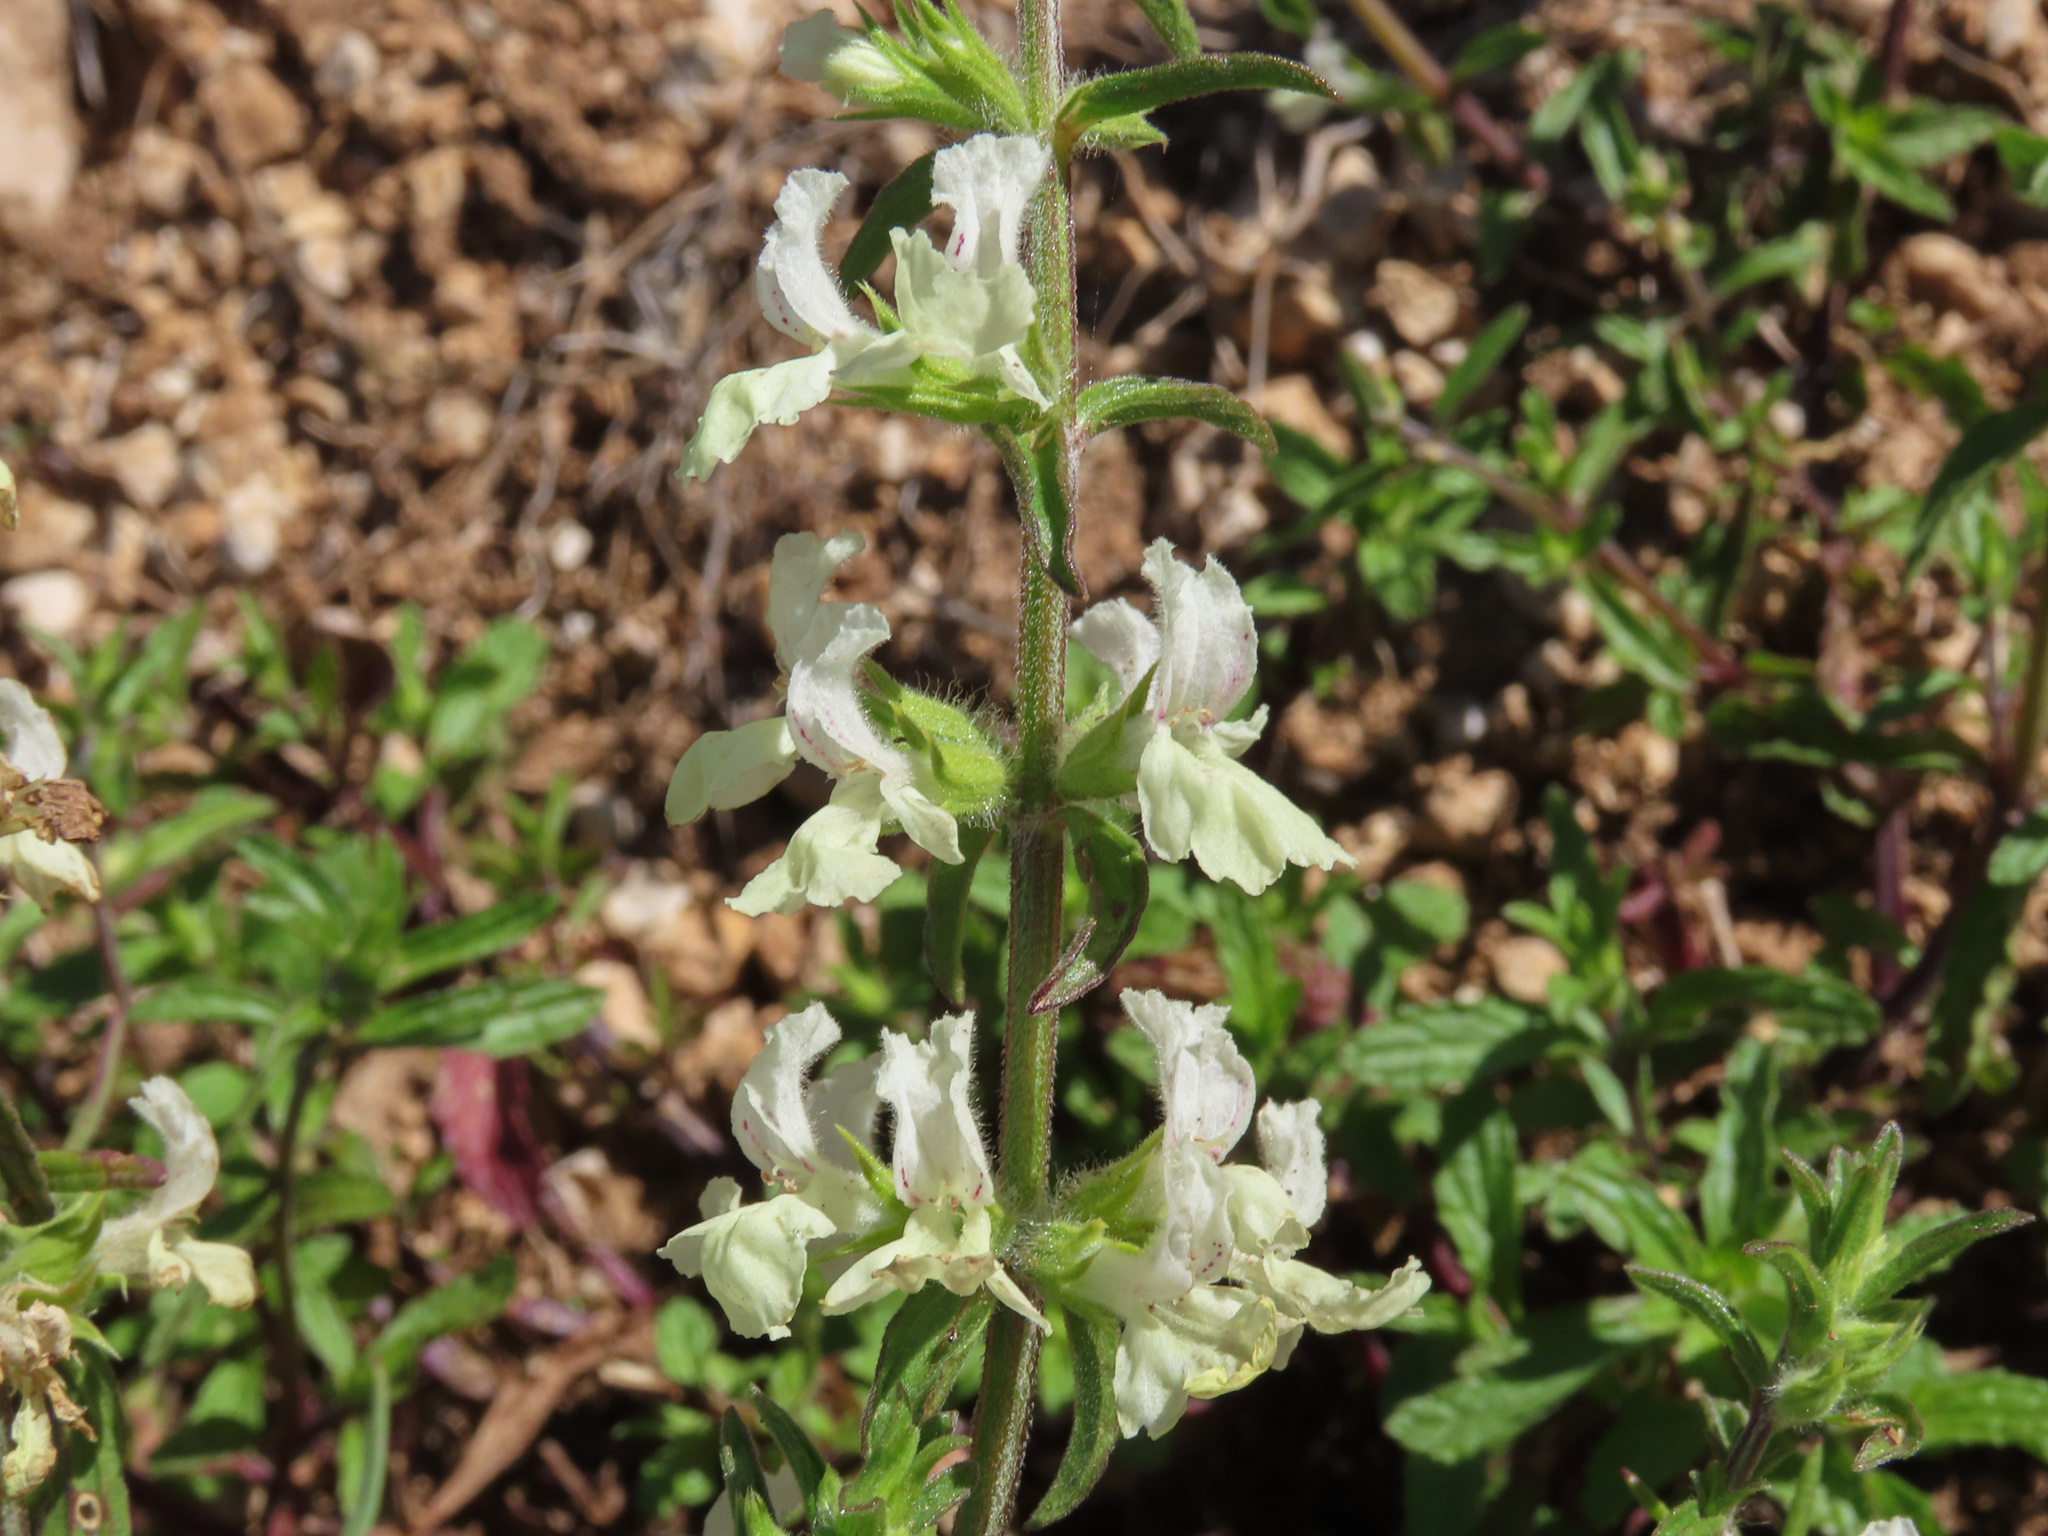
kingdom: Plantae
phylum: Tracheophyta
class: Magnoliopsida
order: Lamiales
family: Lamiaceae
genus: Stachys
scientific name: Stachys recta
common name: Perennial yellow-woundwort
